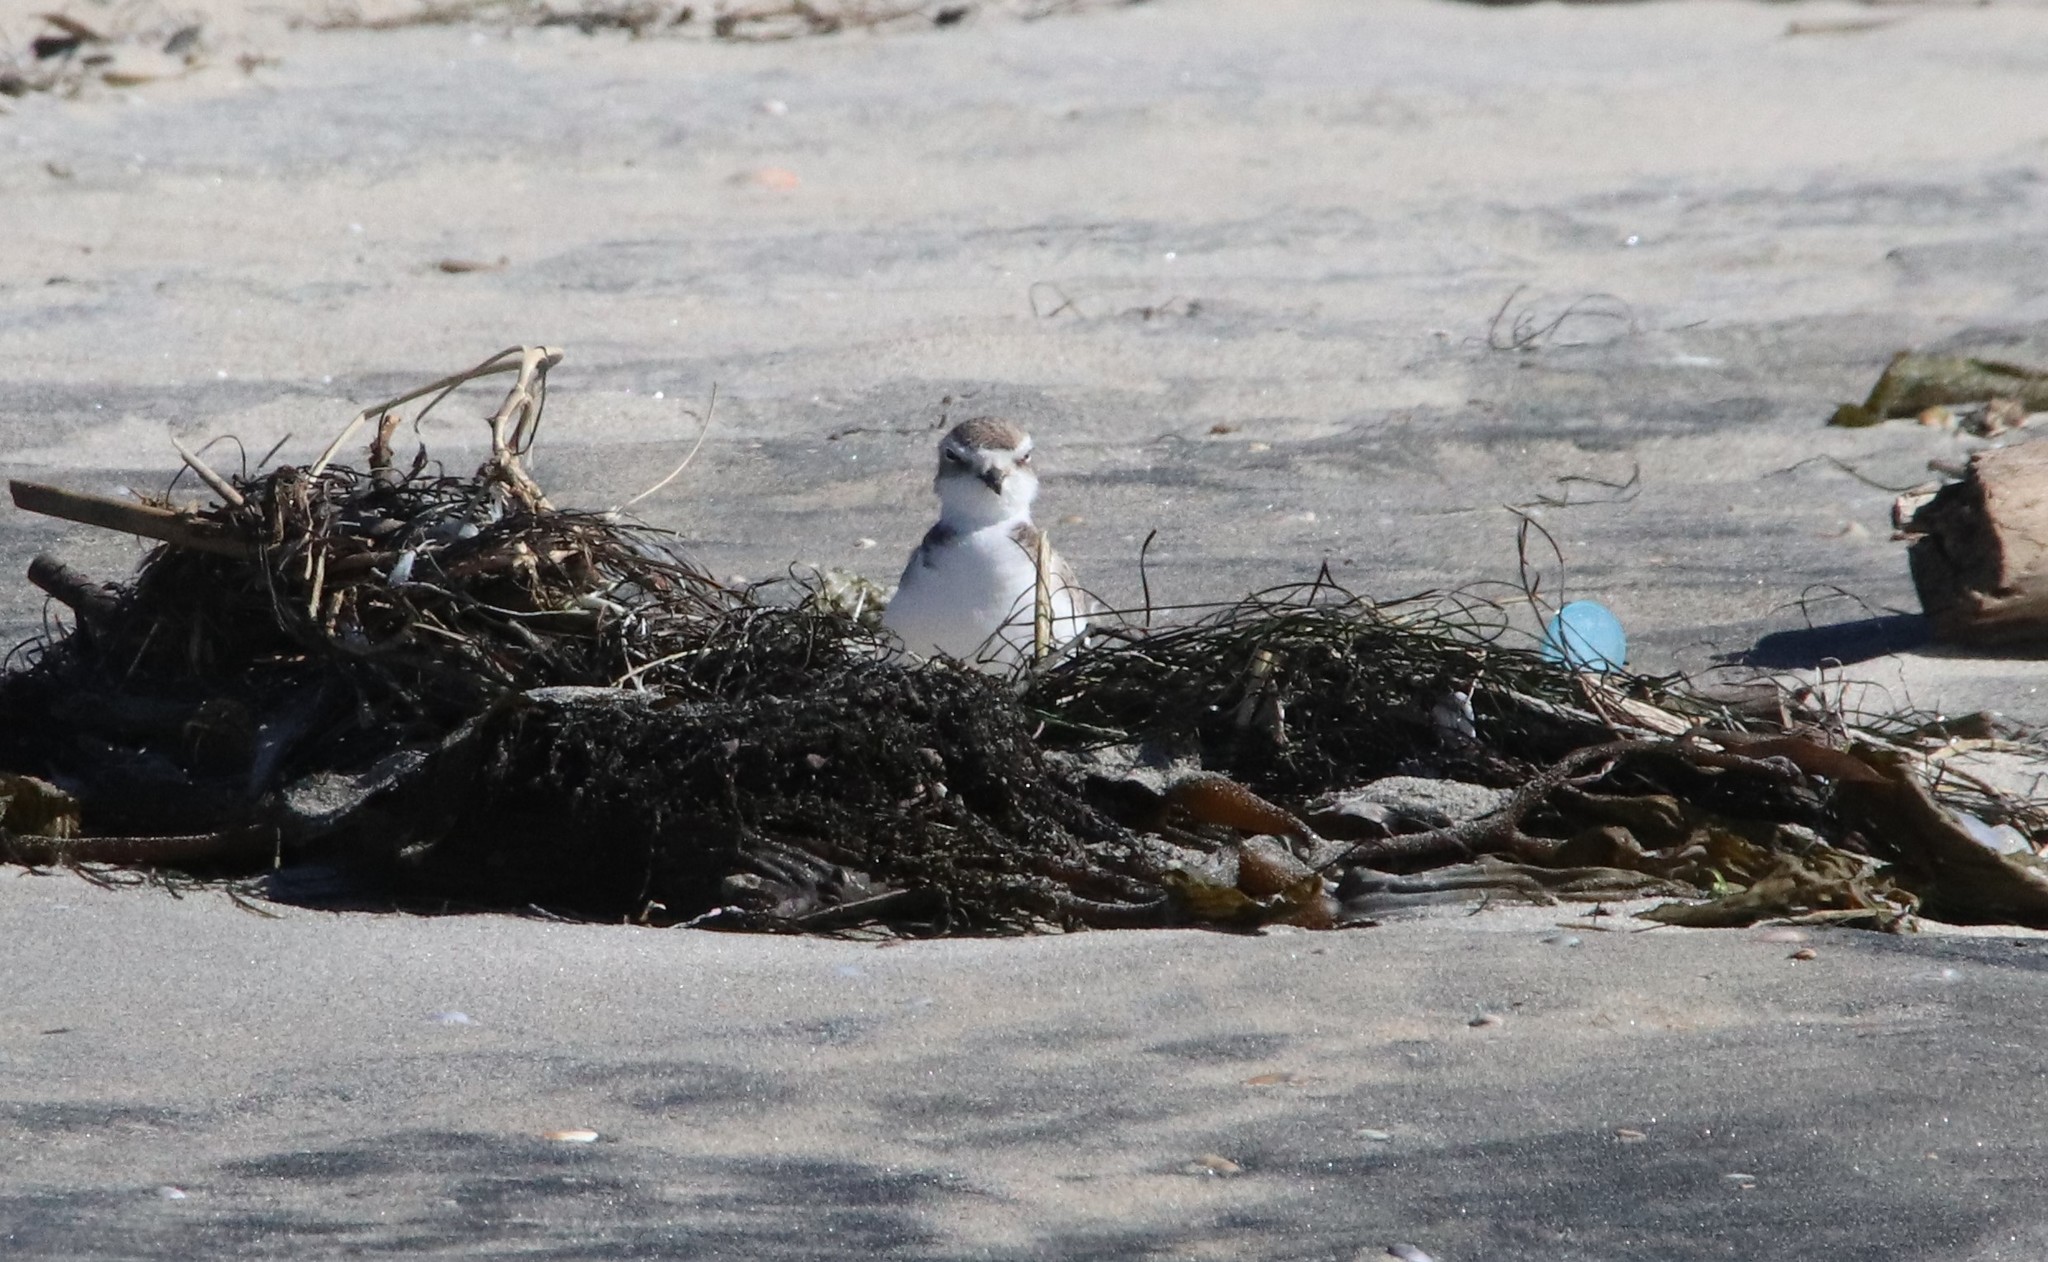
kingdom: Animalia
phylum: Chordata
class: Aves
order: Charadriiformes
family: Charadriidae
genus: Anarhynchus
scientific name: Anarhynchus
